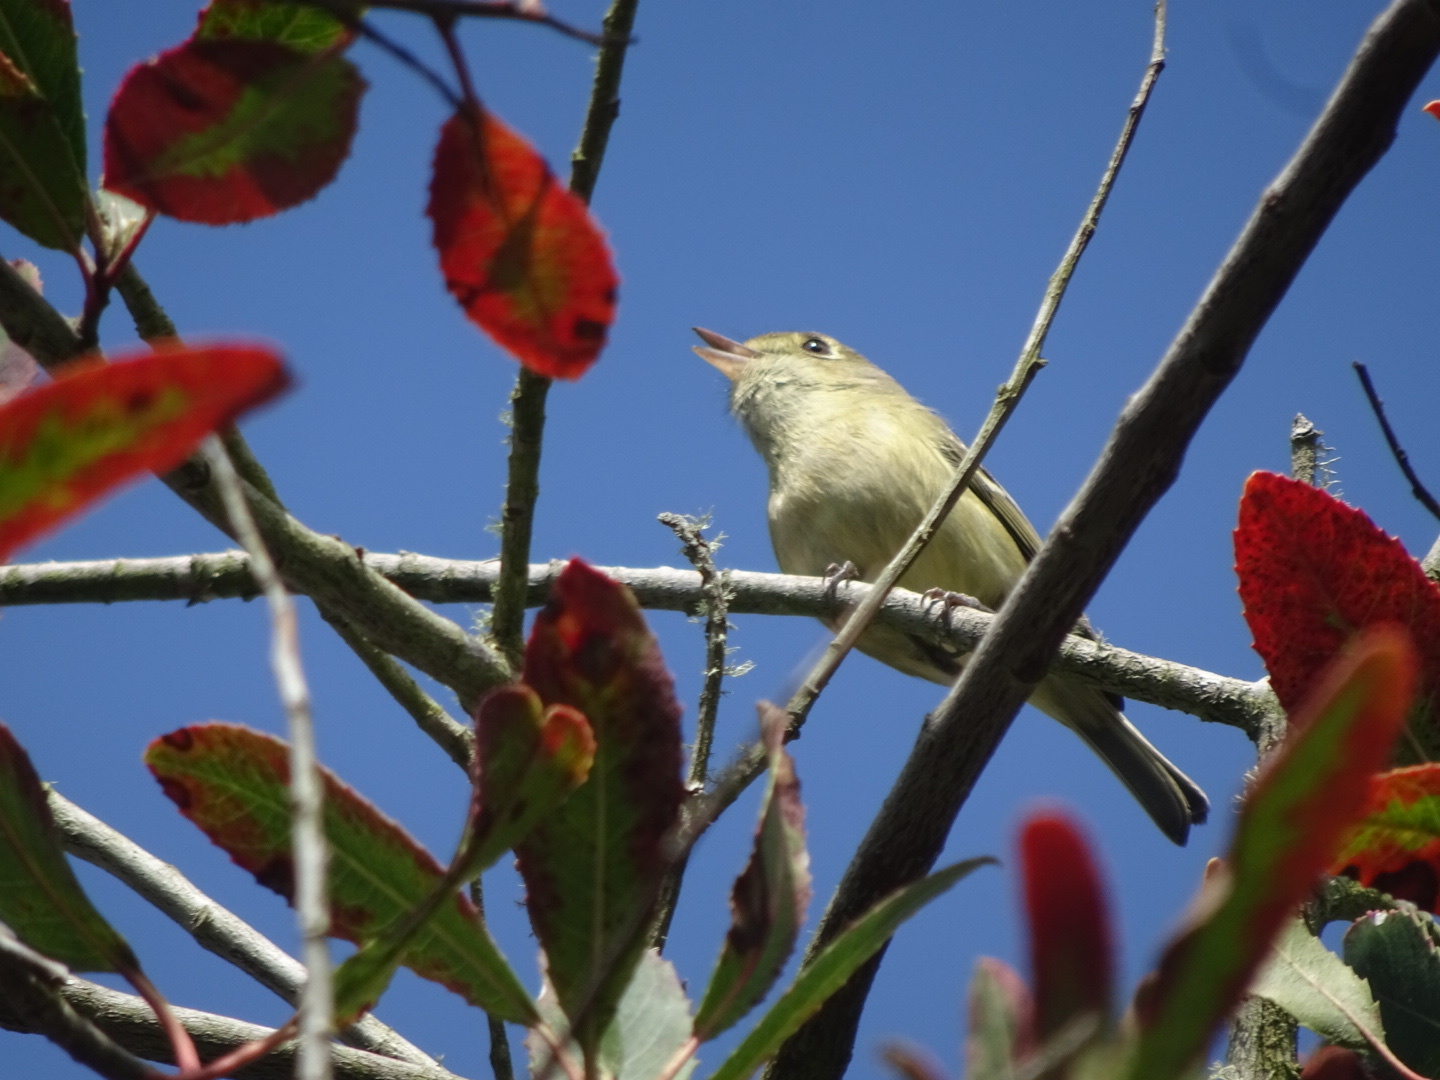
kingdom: Animalia
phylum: Chordata
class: Aves
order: Passeriformes
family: Vireonidae
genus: Vireo
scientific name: Vireo huttoni
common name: Hutton's vireo
